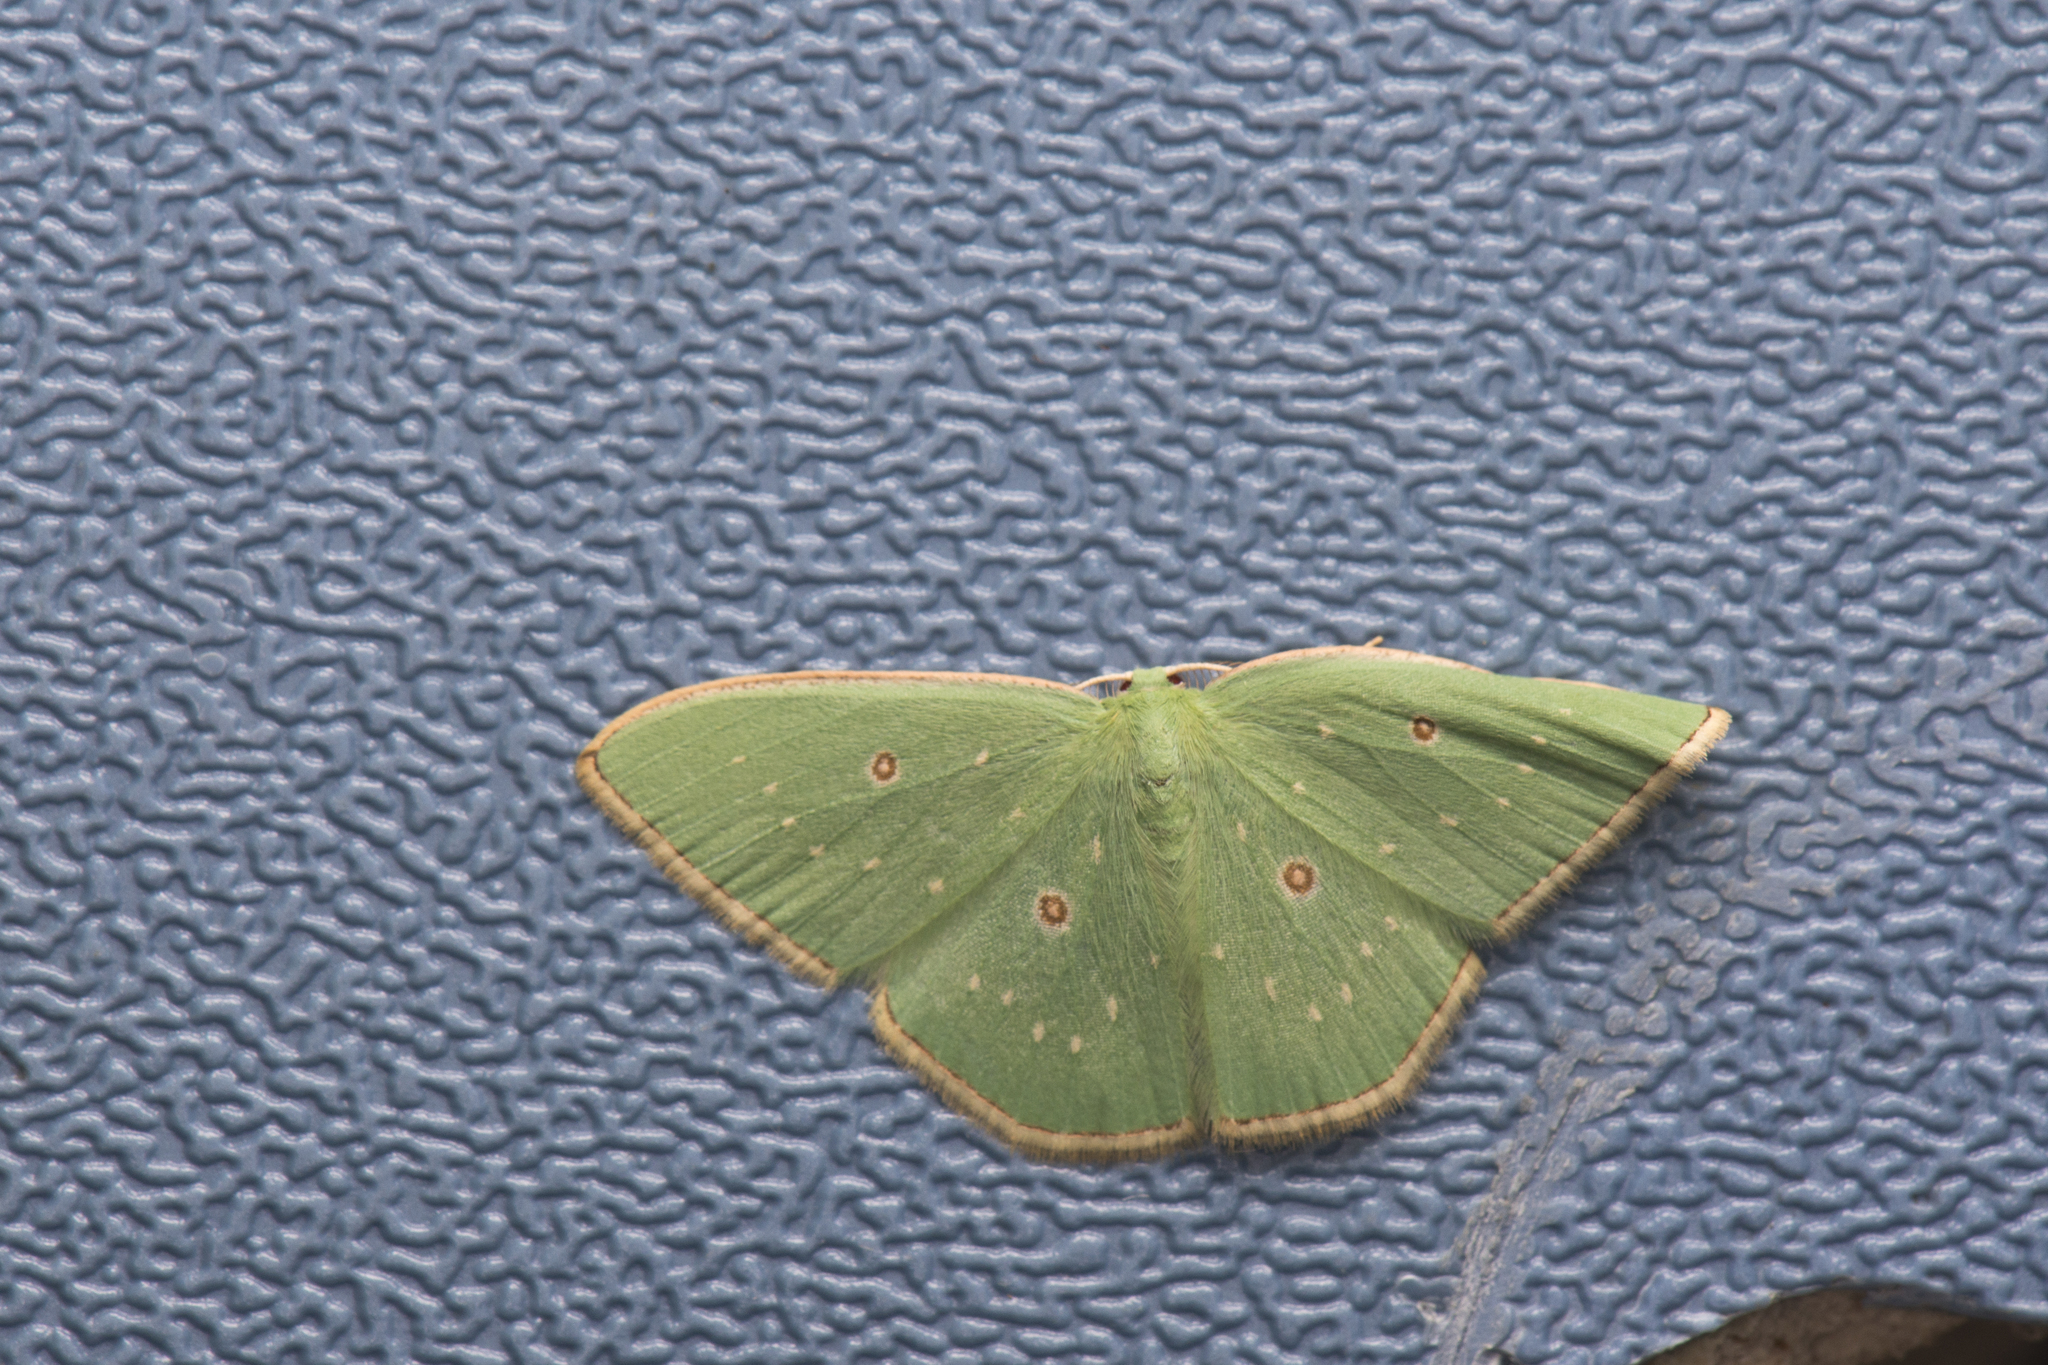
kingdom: Animalia
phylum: Arthropoda
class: Insecta
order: Lepidoptera
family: Geometridae
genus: Comostola
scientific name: Comostola ocellulata
